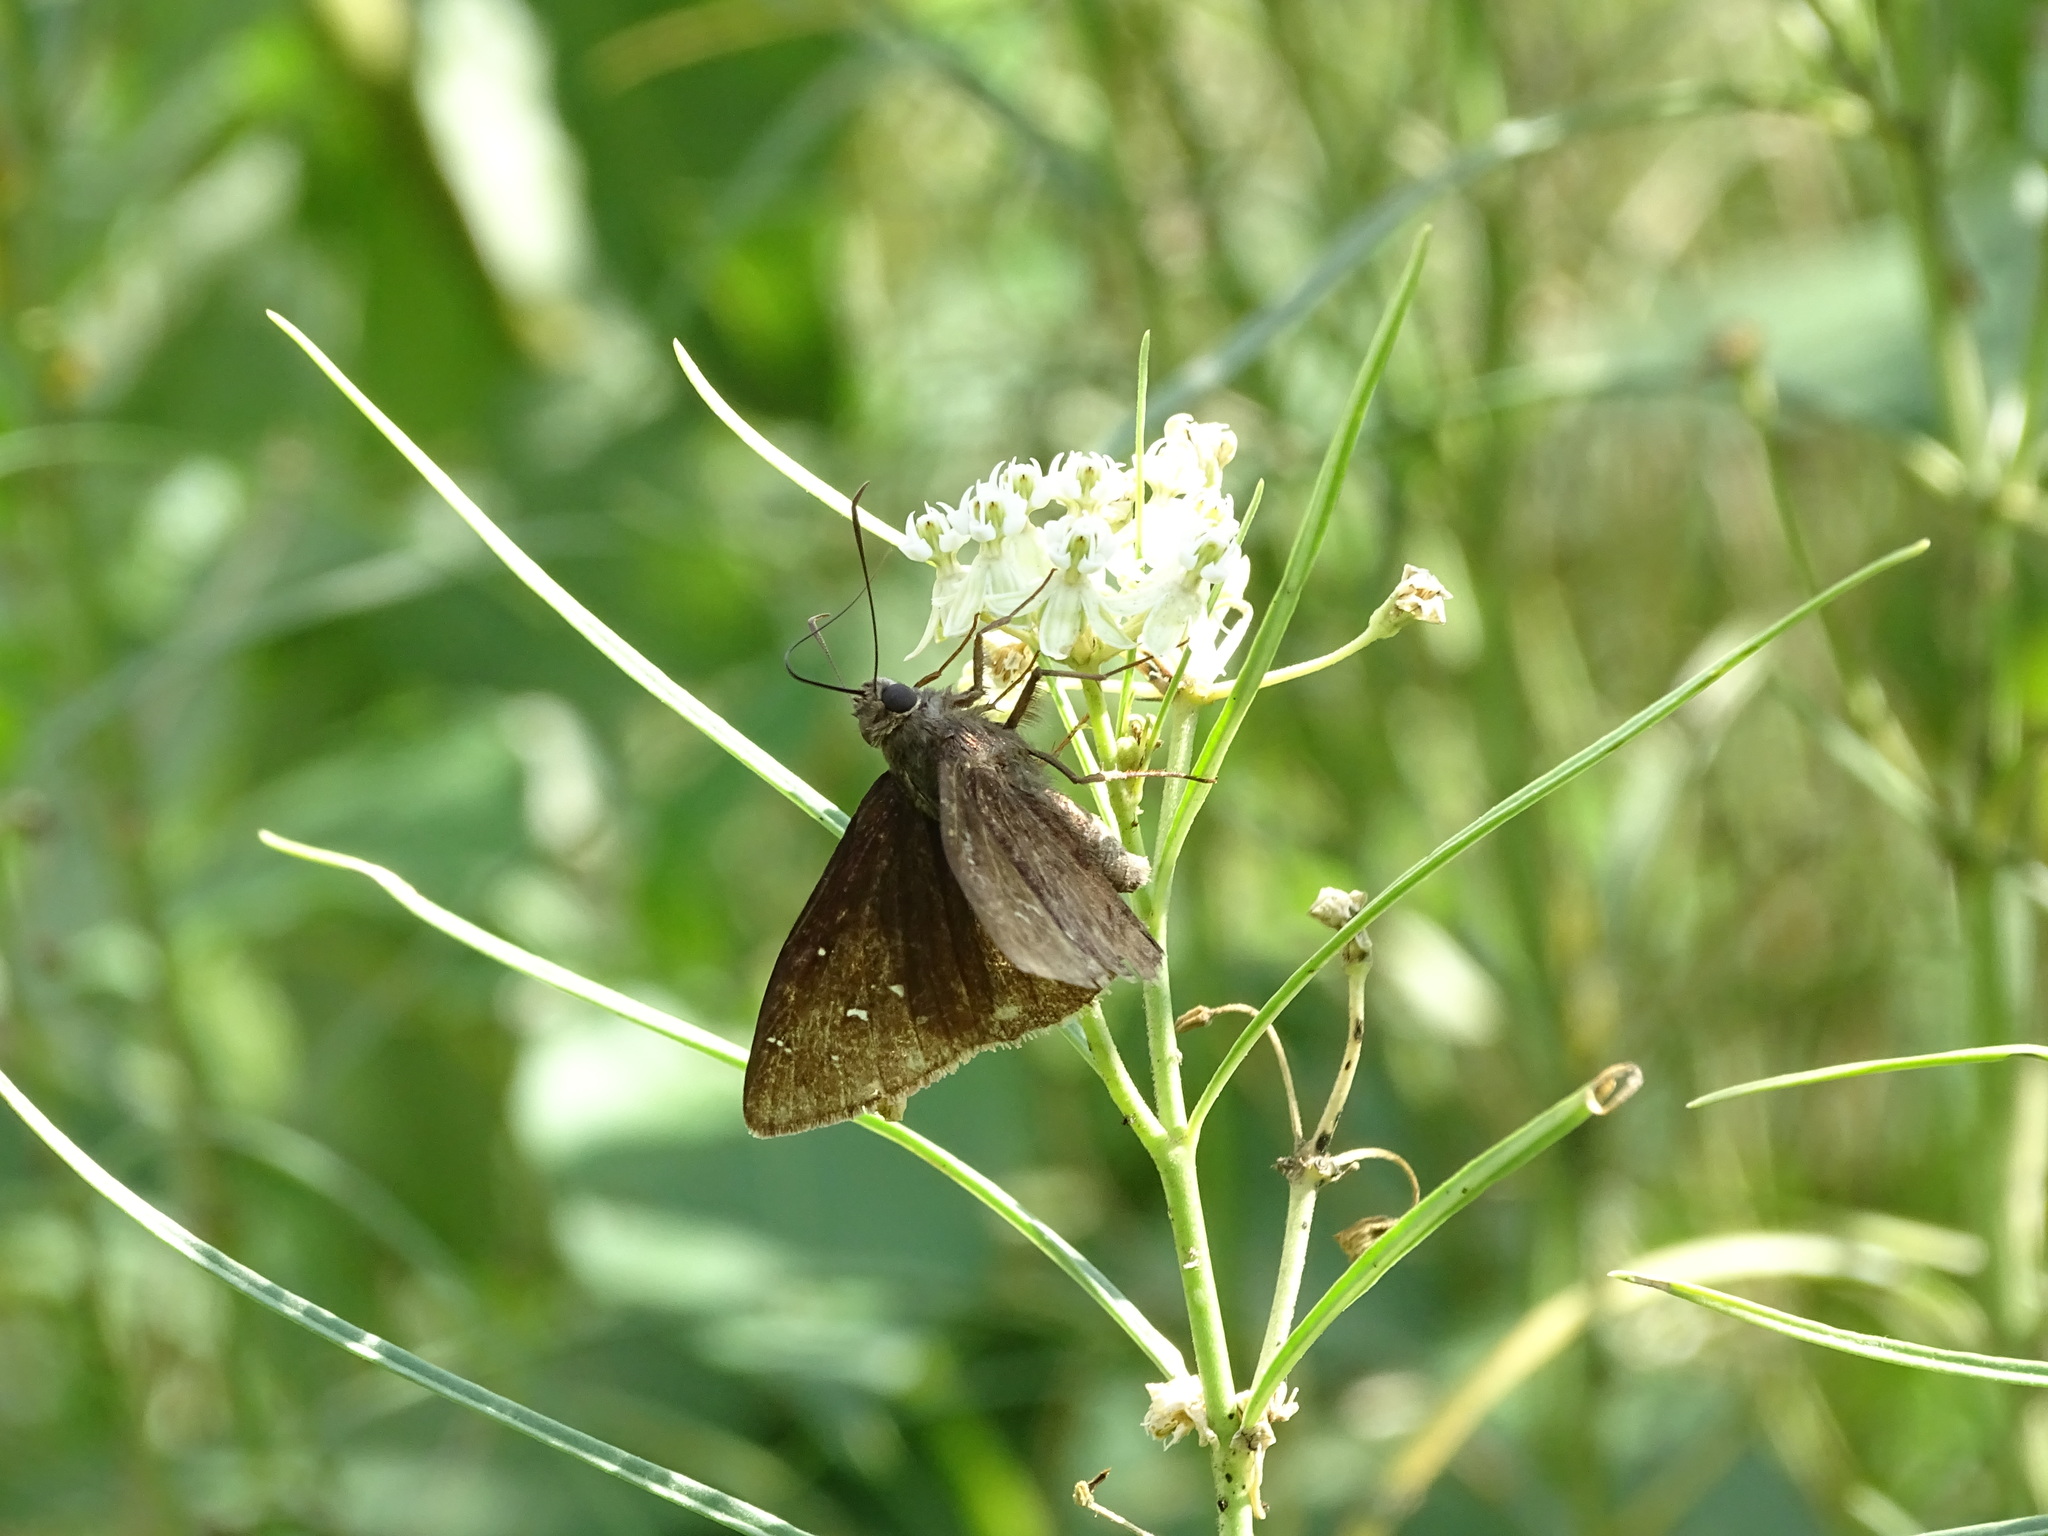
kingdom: Animalia
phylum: Arthropoda
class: Insecta
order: Lepidoptera
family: Hesperiidae
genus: Thorybes
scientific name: Thorybes pylades
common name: Northern cloudywing
